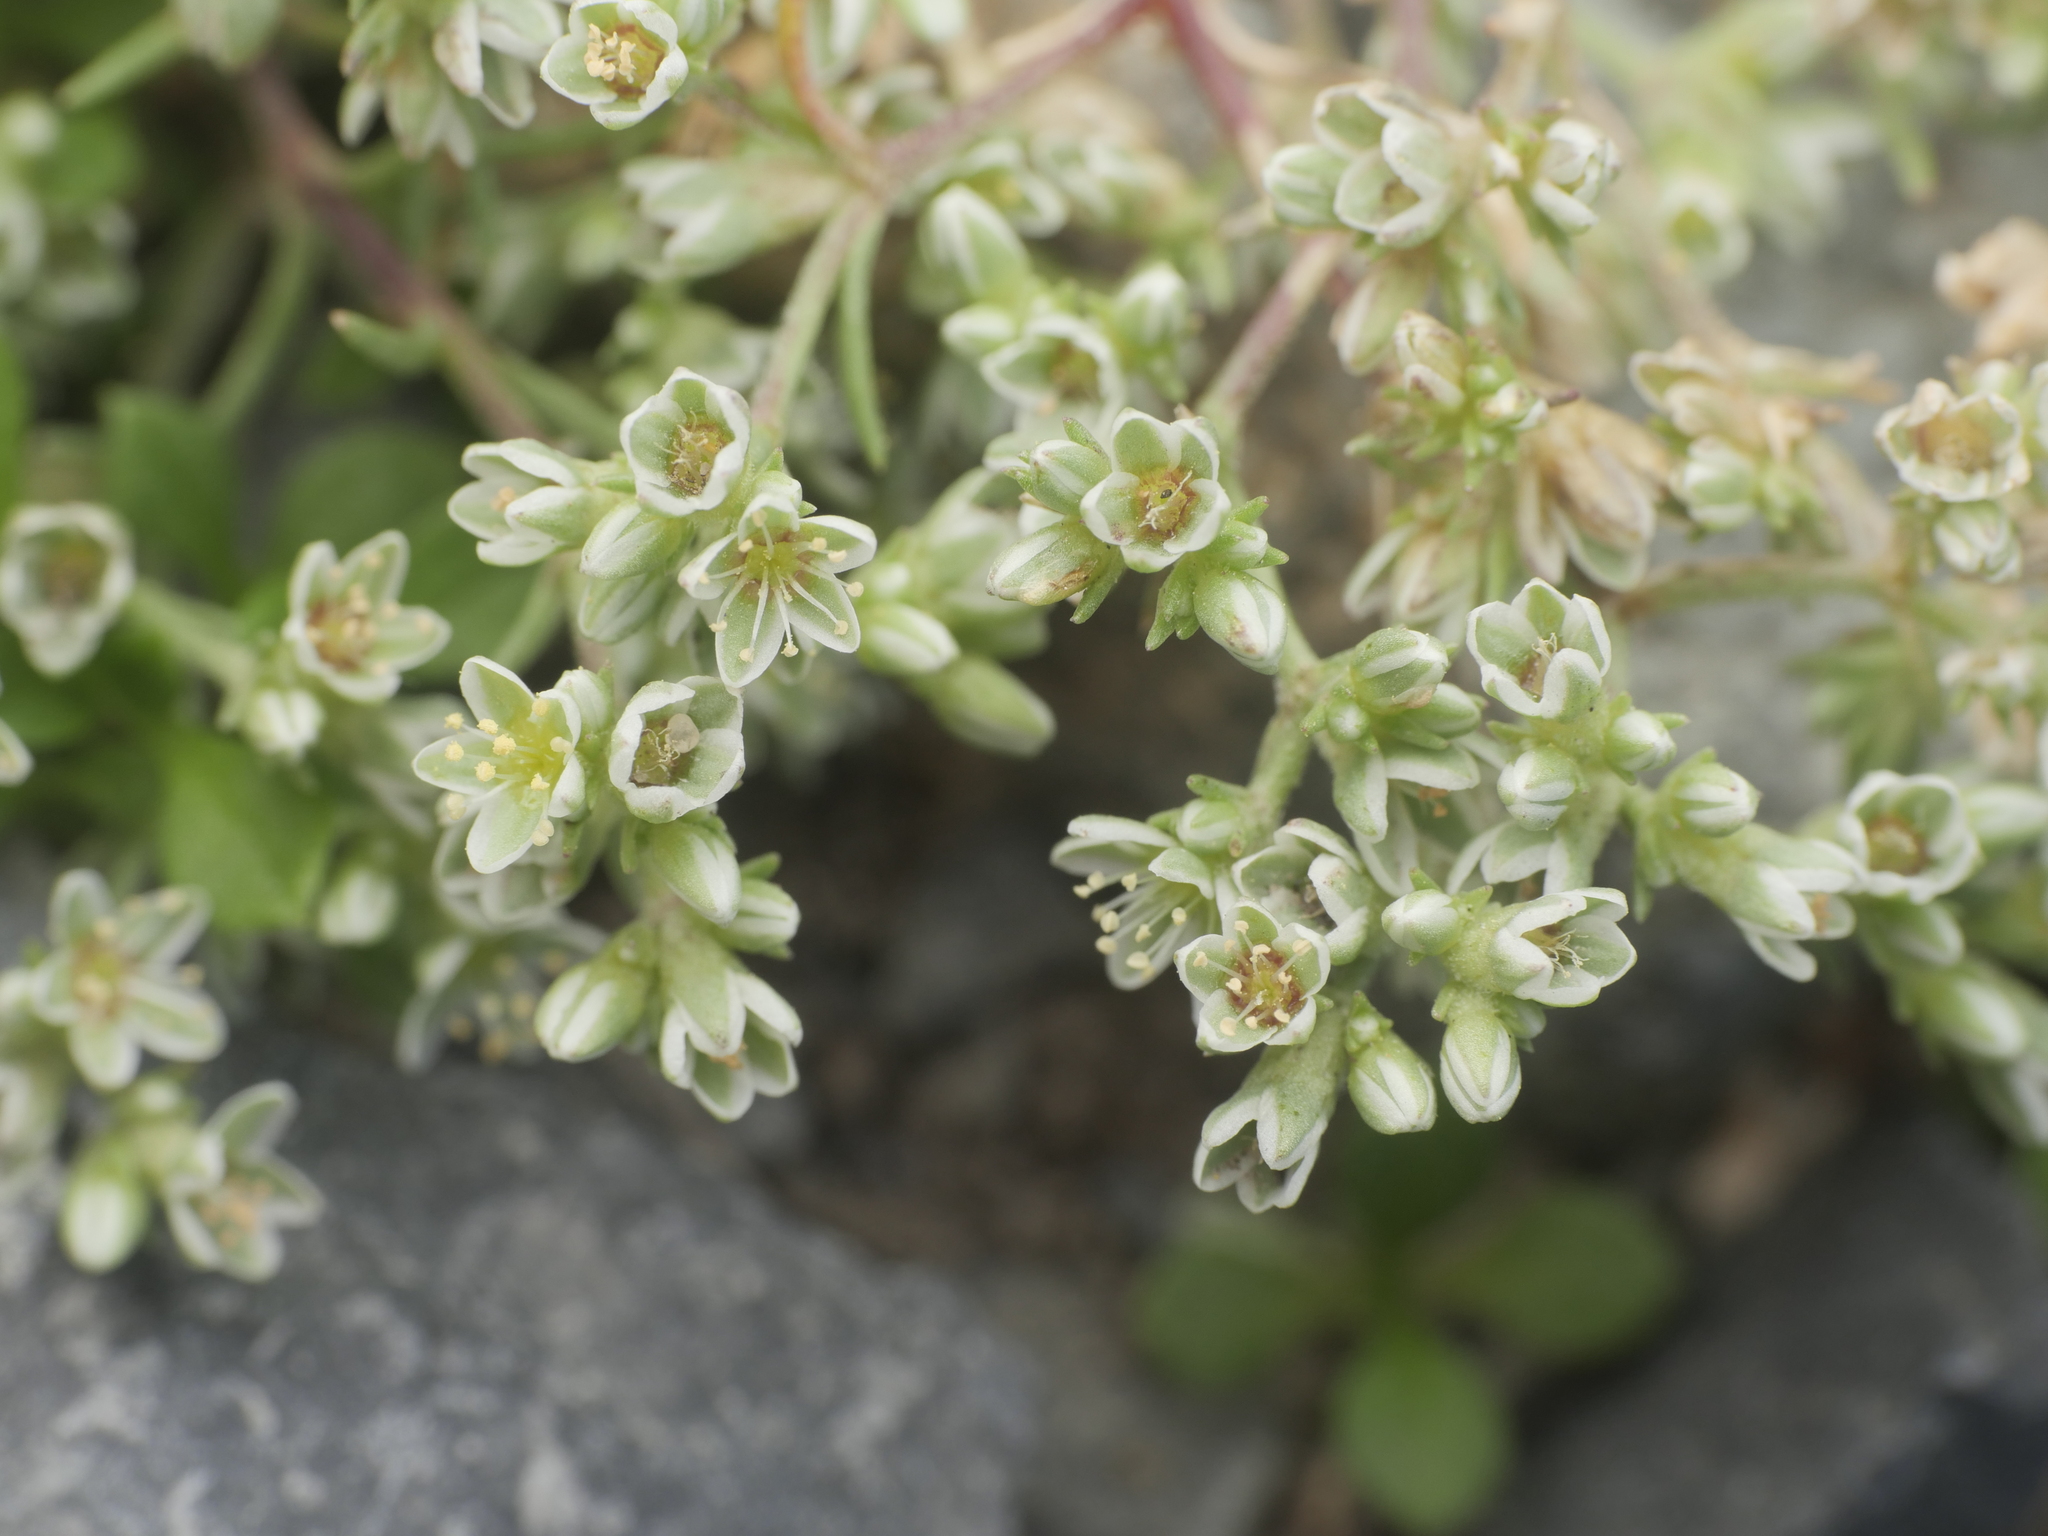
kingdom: Plantae
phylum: Tracheophyta
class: Magnoliopsida
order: Caryophyllales
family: Caryophyllaceae
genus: Scleranthus
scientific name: Scleranthus perennis
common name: Perennial knawel
